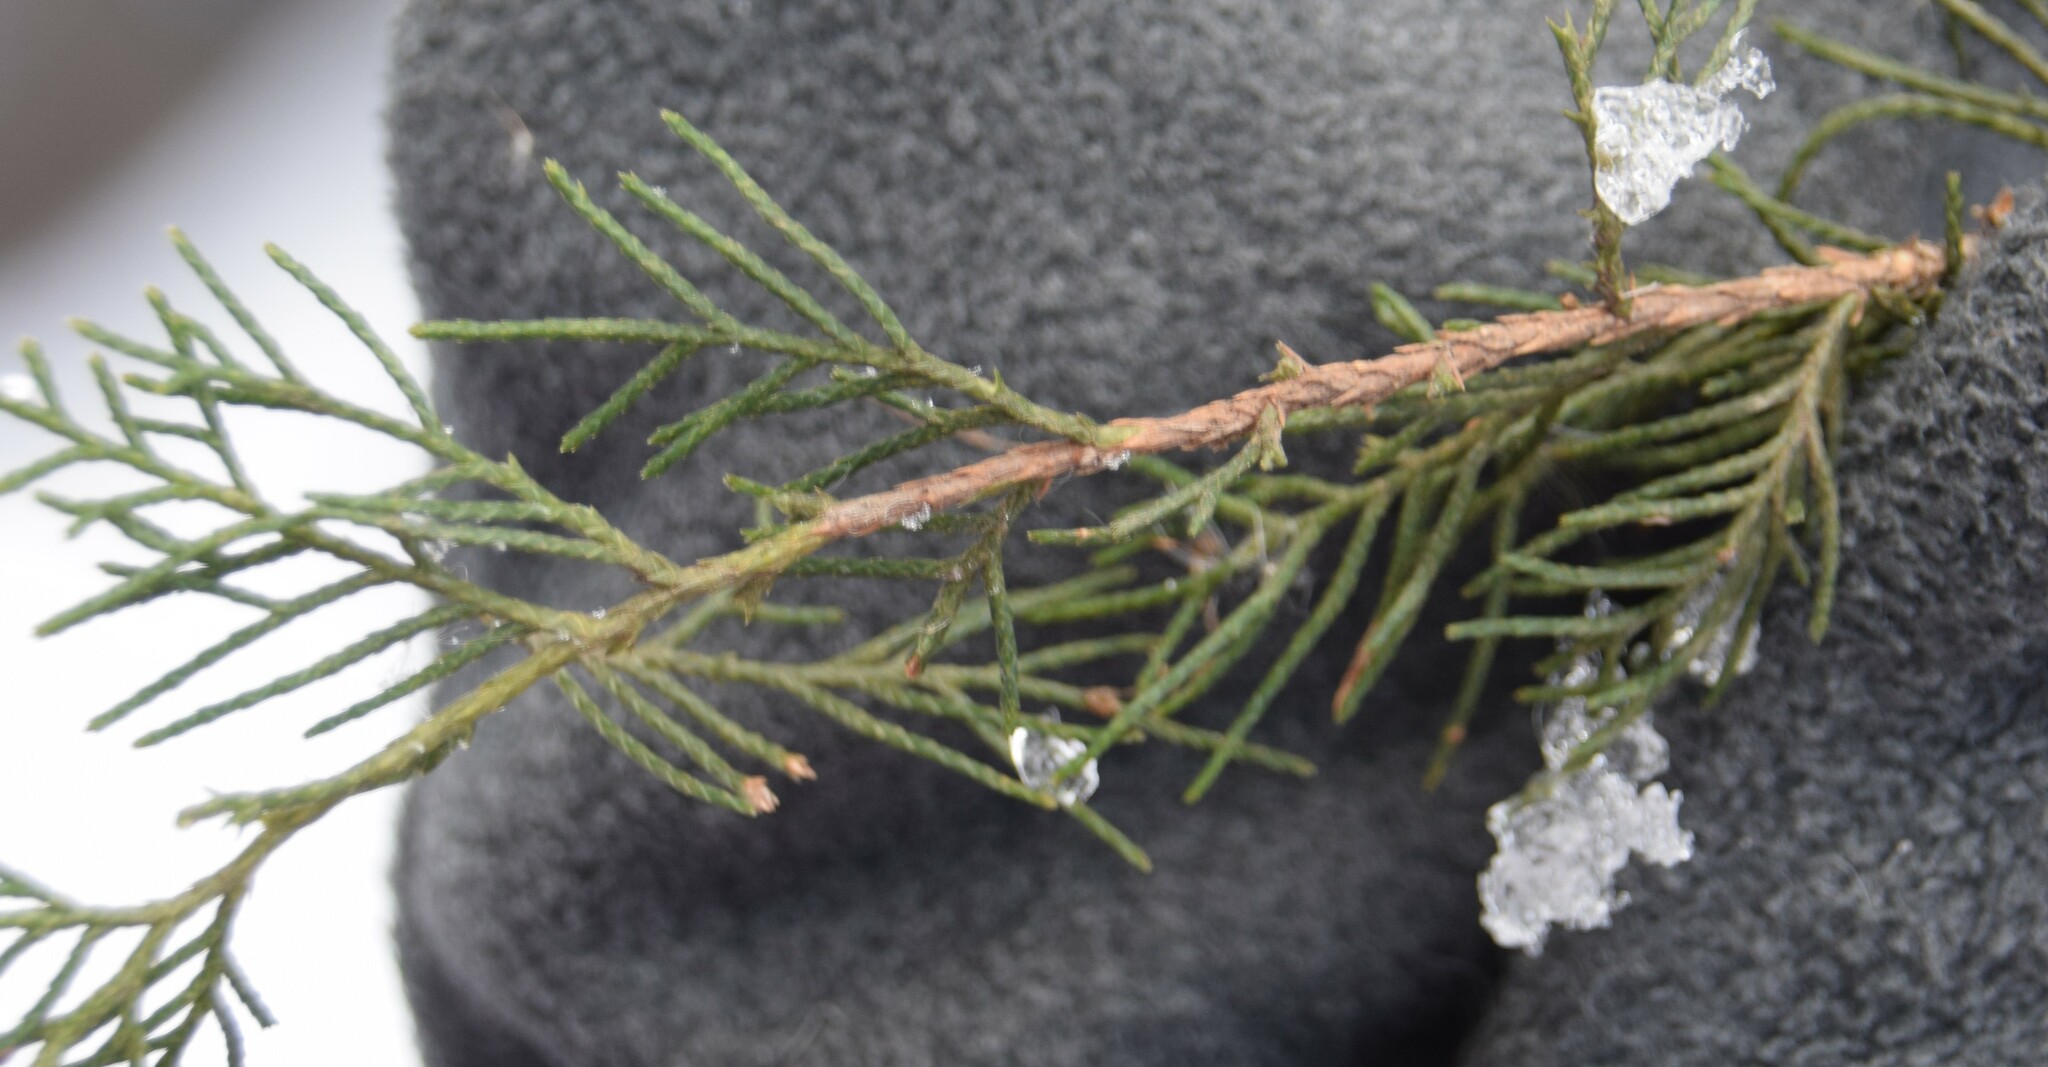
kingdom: Plantae
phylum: Tracheophyta
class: Pinopsida
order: Pinales
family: Cupressaceae
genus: Juniperus
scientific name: Juniperus virginiana
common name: Red juniper
